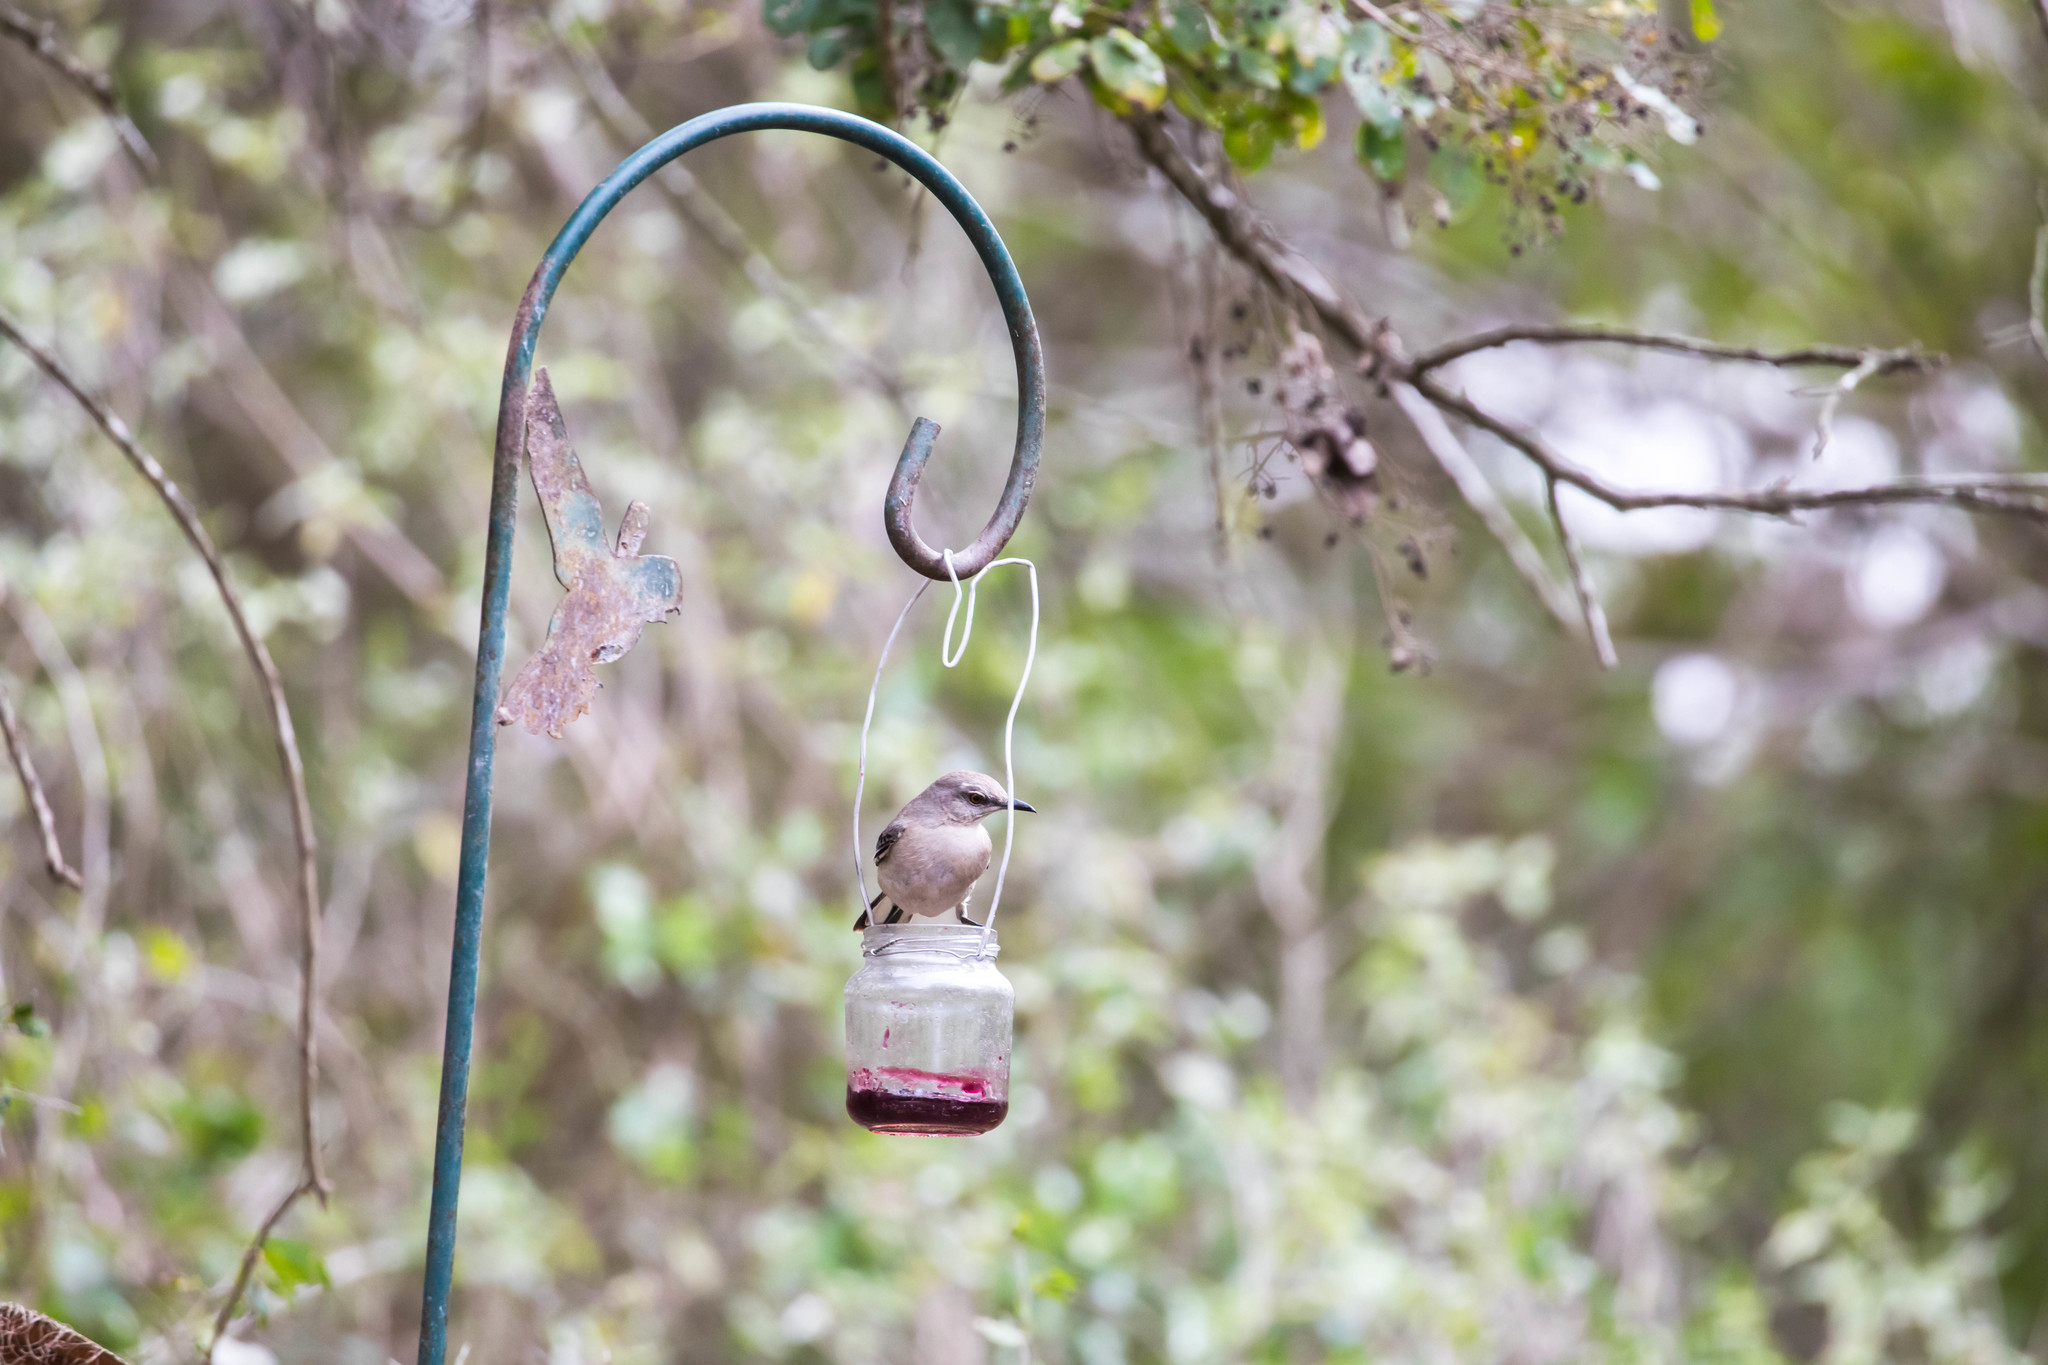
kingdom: Animalia
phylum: Chordata
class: Aves
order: Passeriformes
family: Mimidae
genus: Mimus
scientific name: Mimus polyglottos
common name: Northern mockingbird
